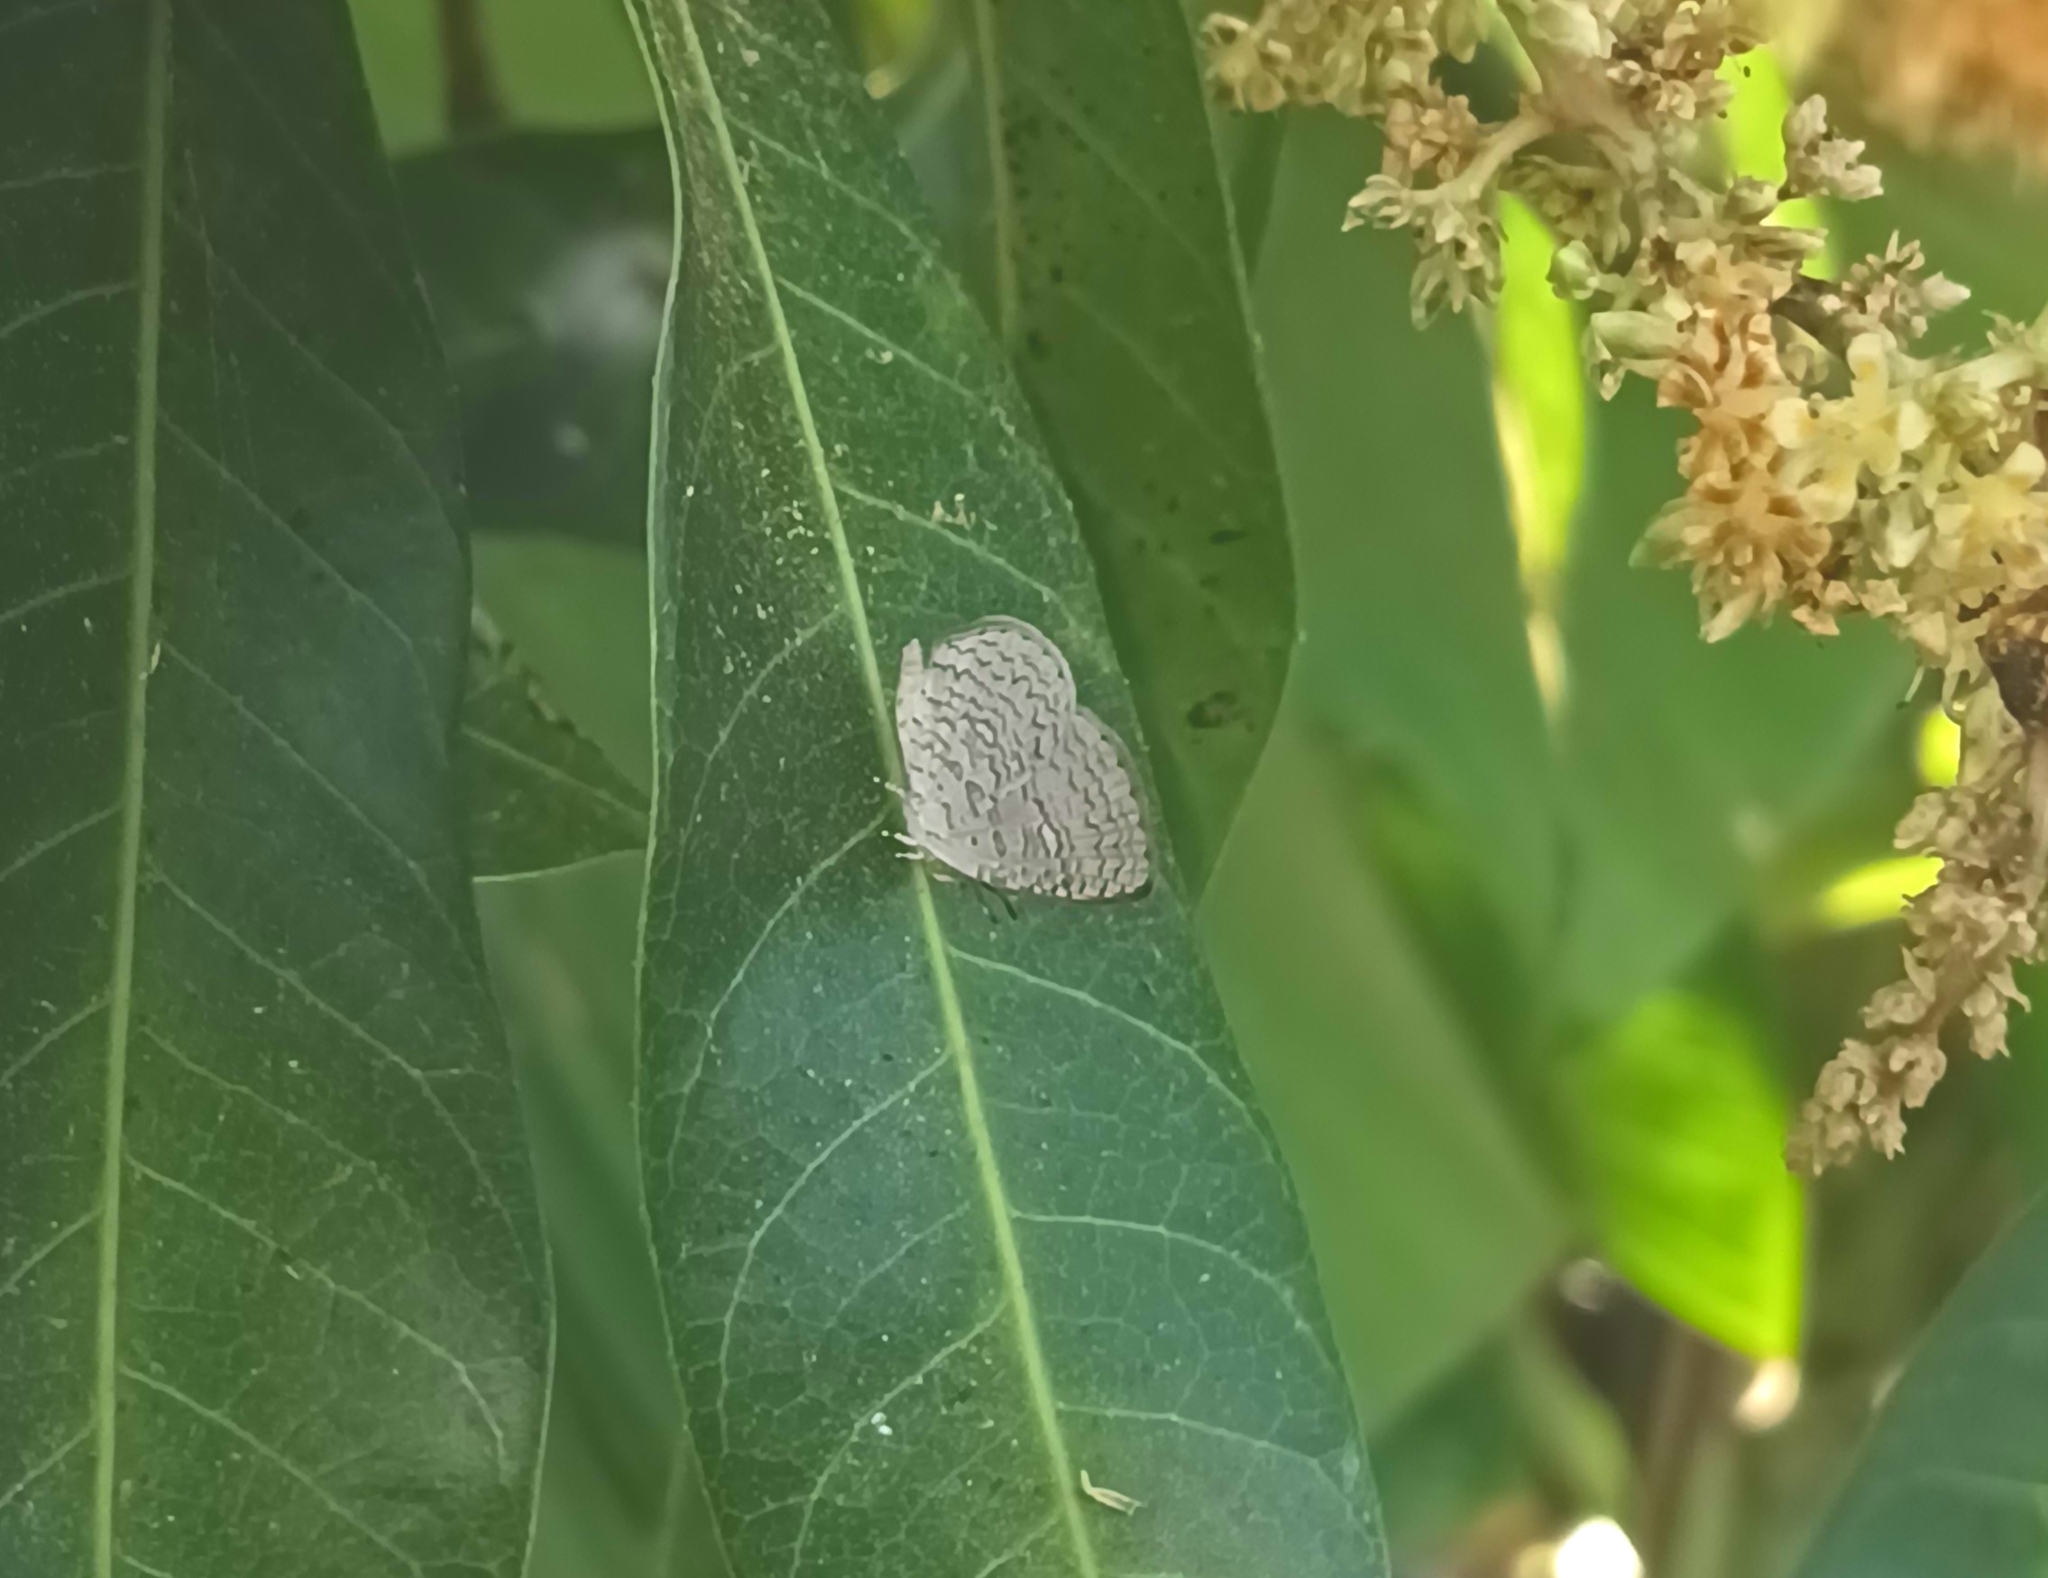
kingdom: Animalia
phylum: Arthropoda
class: Insecta
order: Lepidoptera
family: Lycaenidae
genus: Spalgis
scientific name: Spalgis epius
